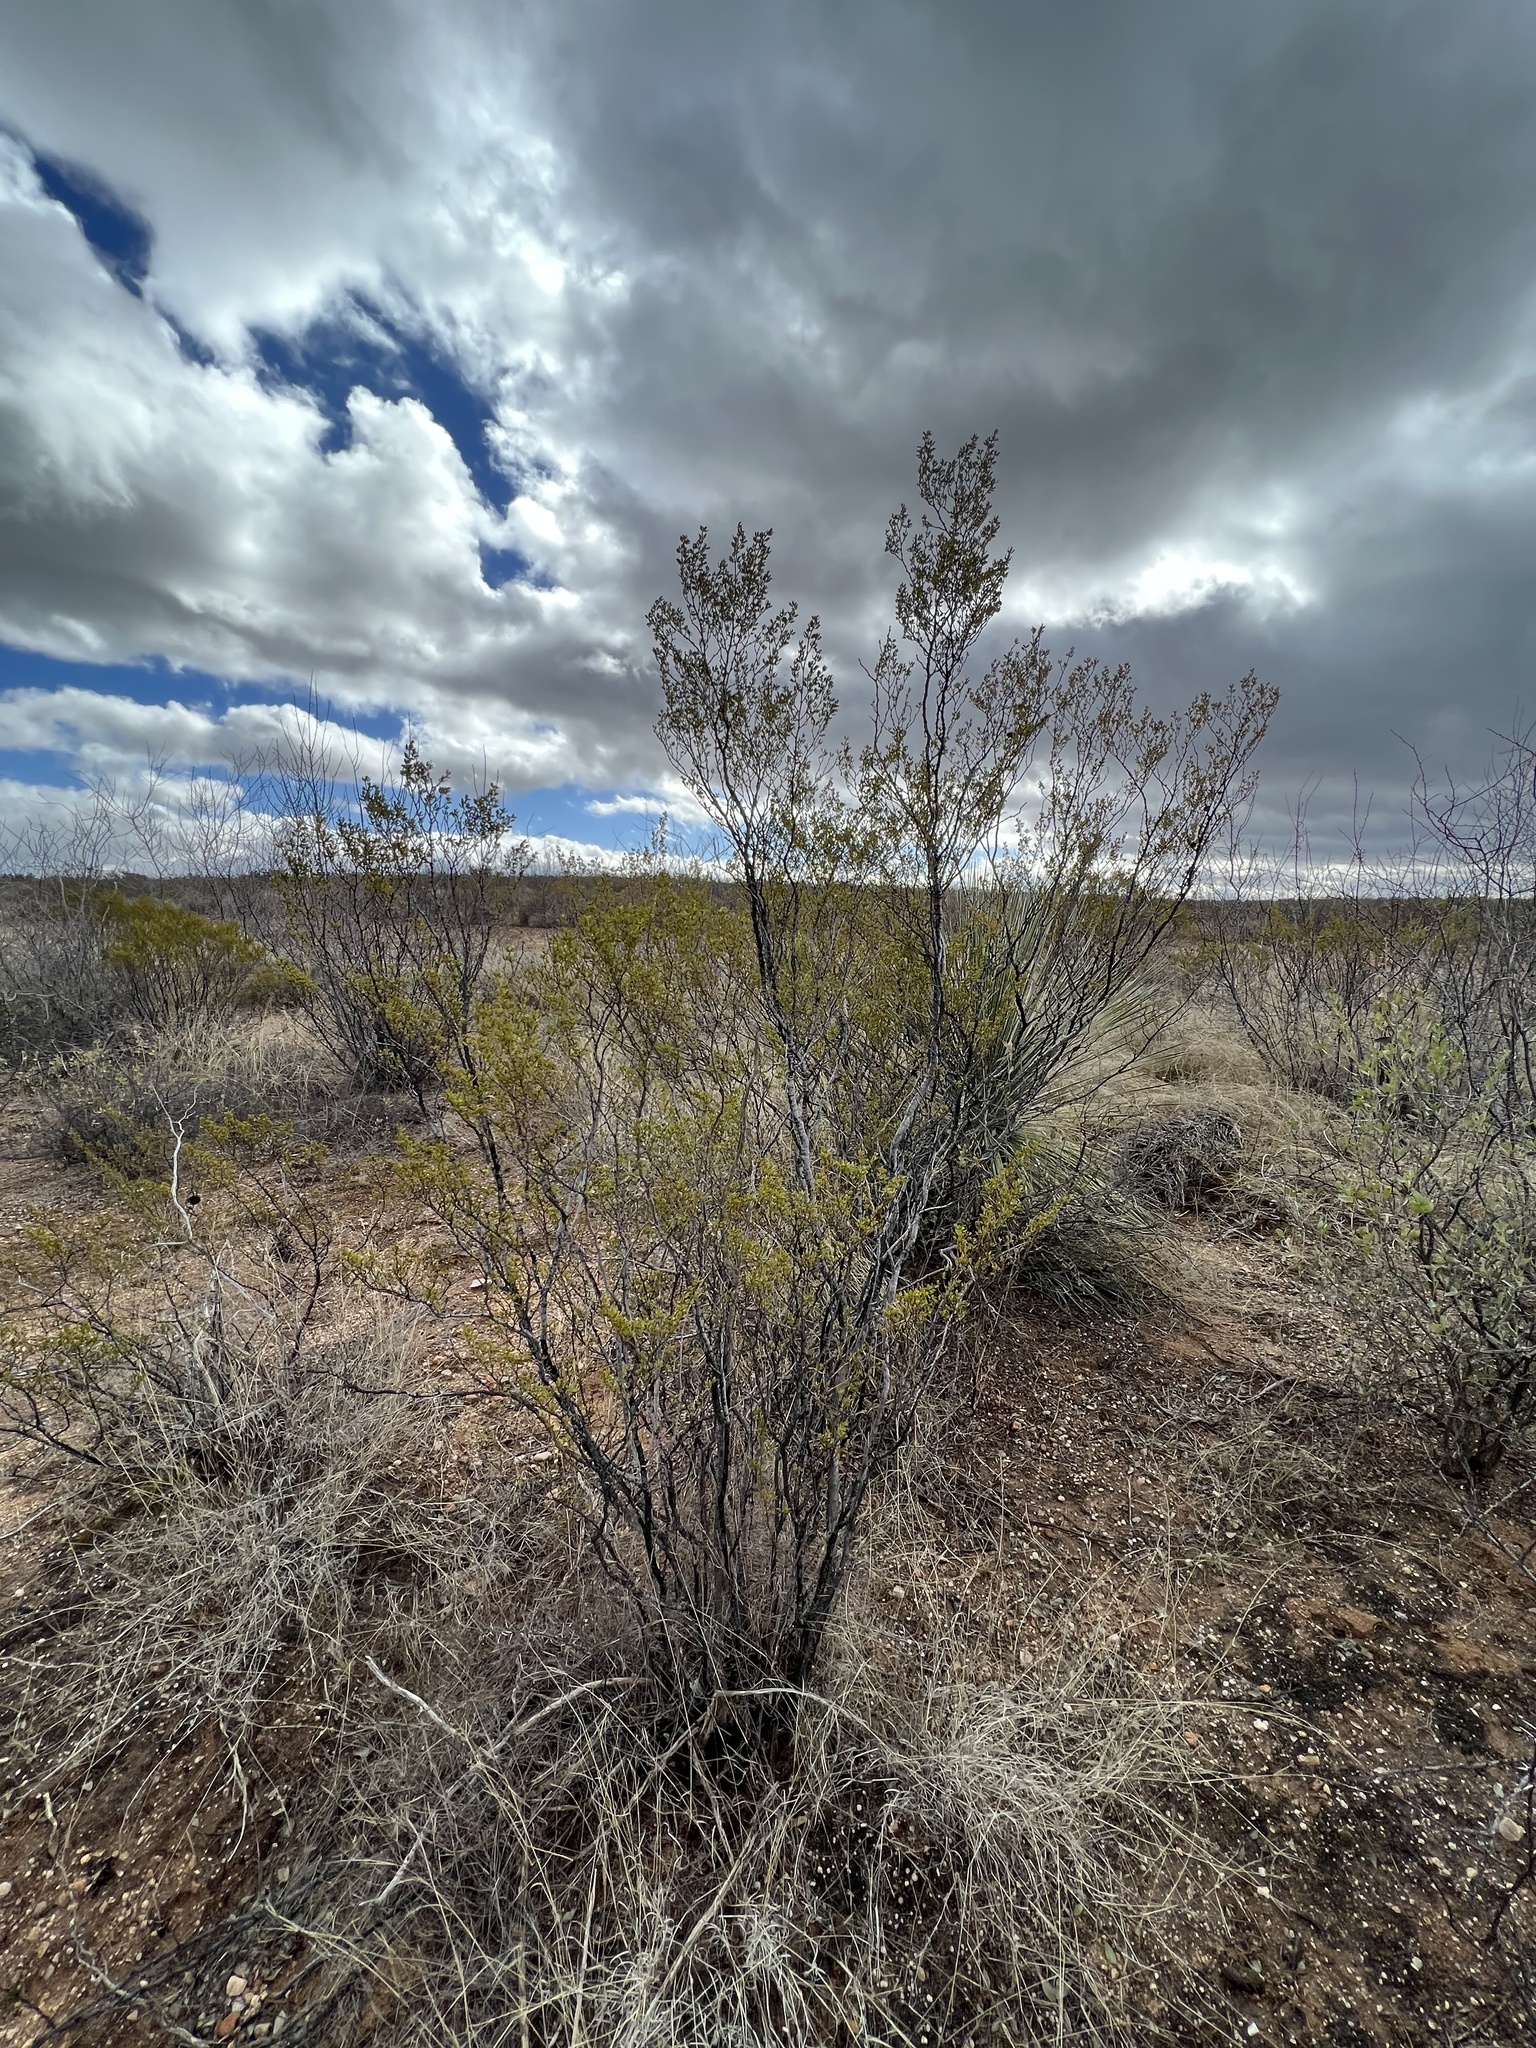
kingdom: Plantae
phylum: Tracheophyta
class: Magnoliopsida
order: Zygophyllales
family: Zygophyllaceae
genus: Larrea
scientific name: Larrea tridentata
